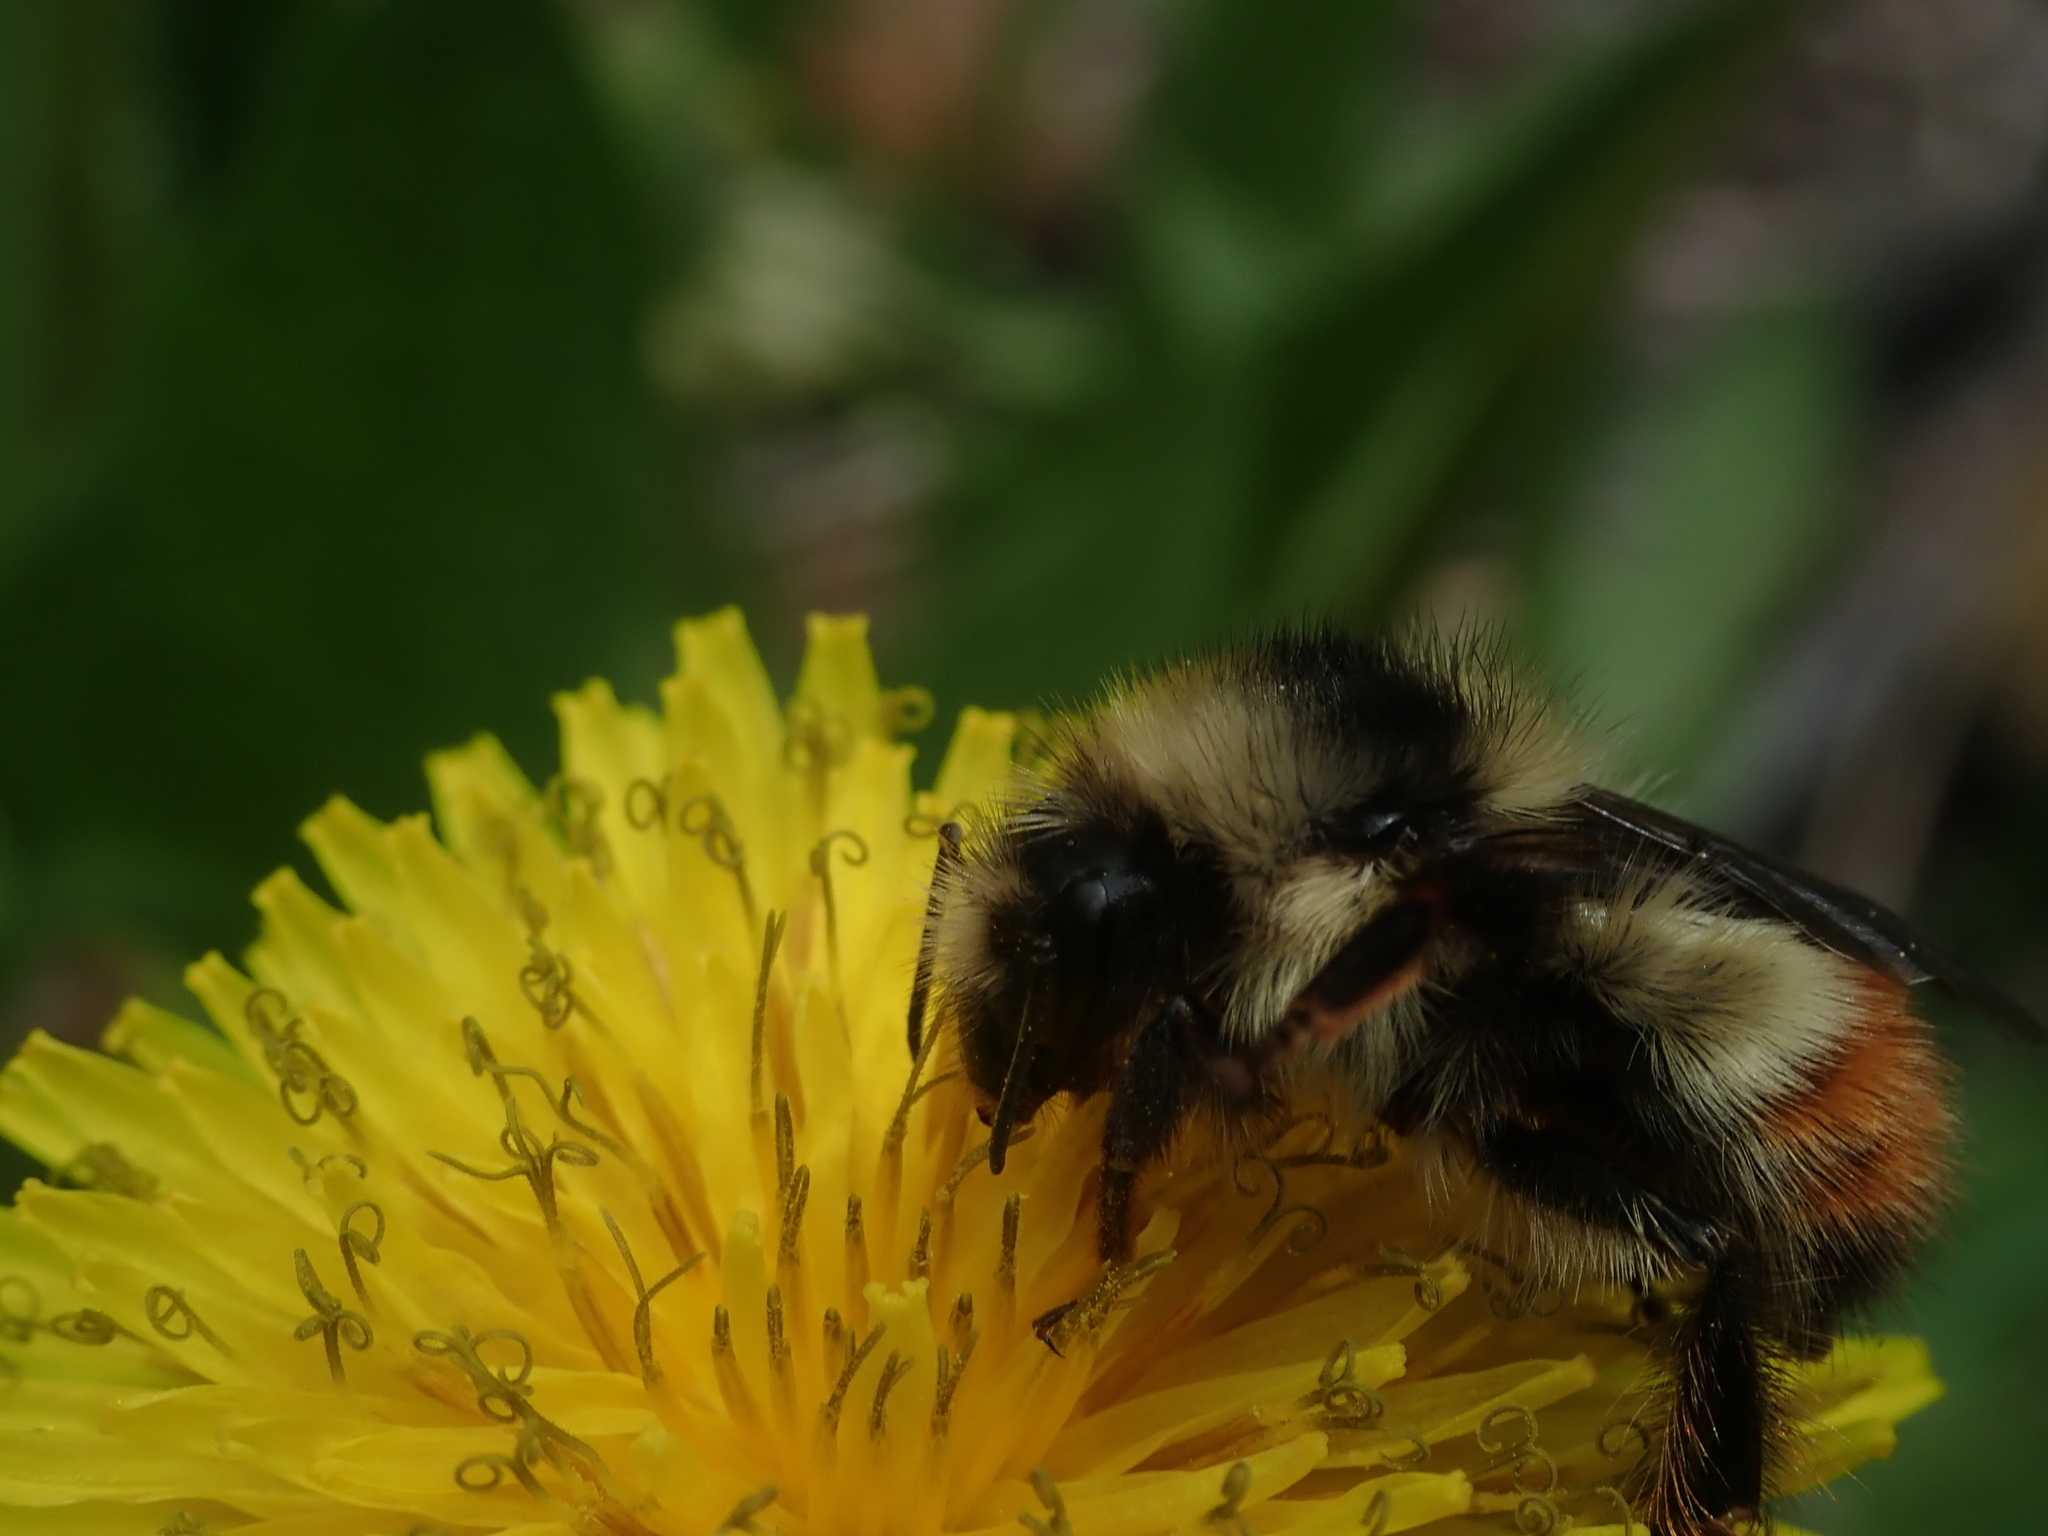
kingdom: Animalia
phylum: Arthropoda
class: Insecta
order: Hymenoptera
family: Apidae
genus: Bombus
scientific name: Bombus flavifrons
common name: Yellow head bumble bee
